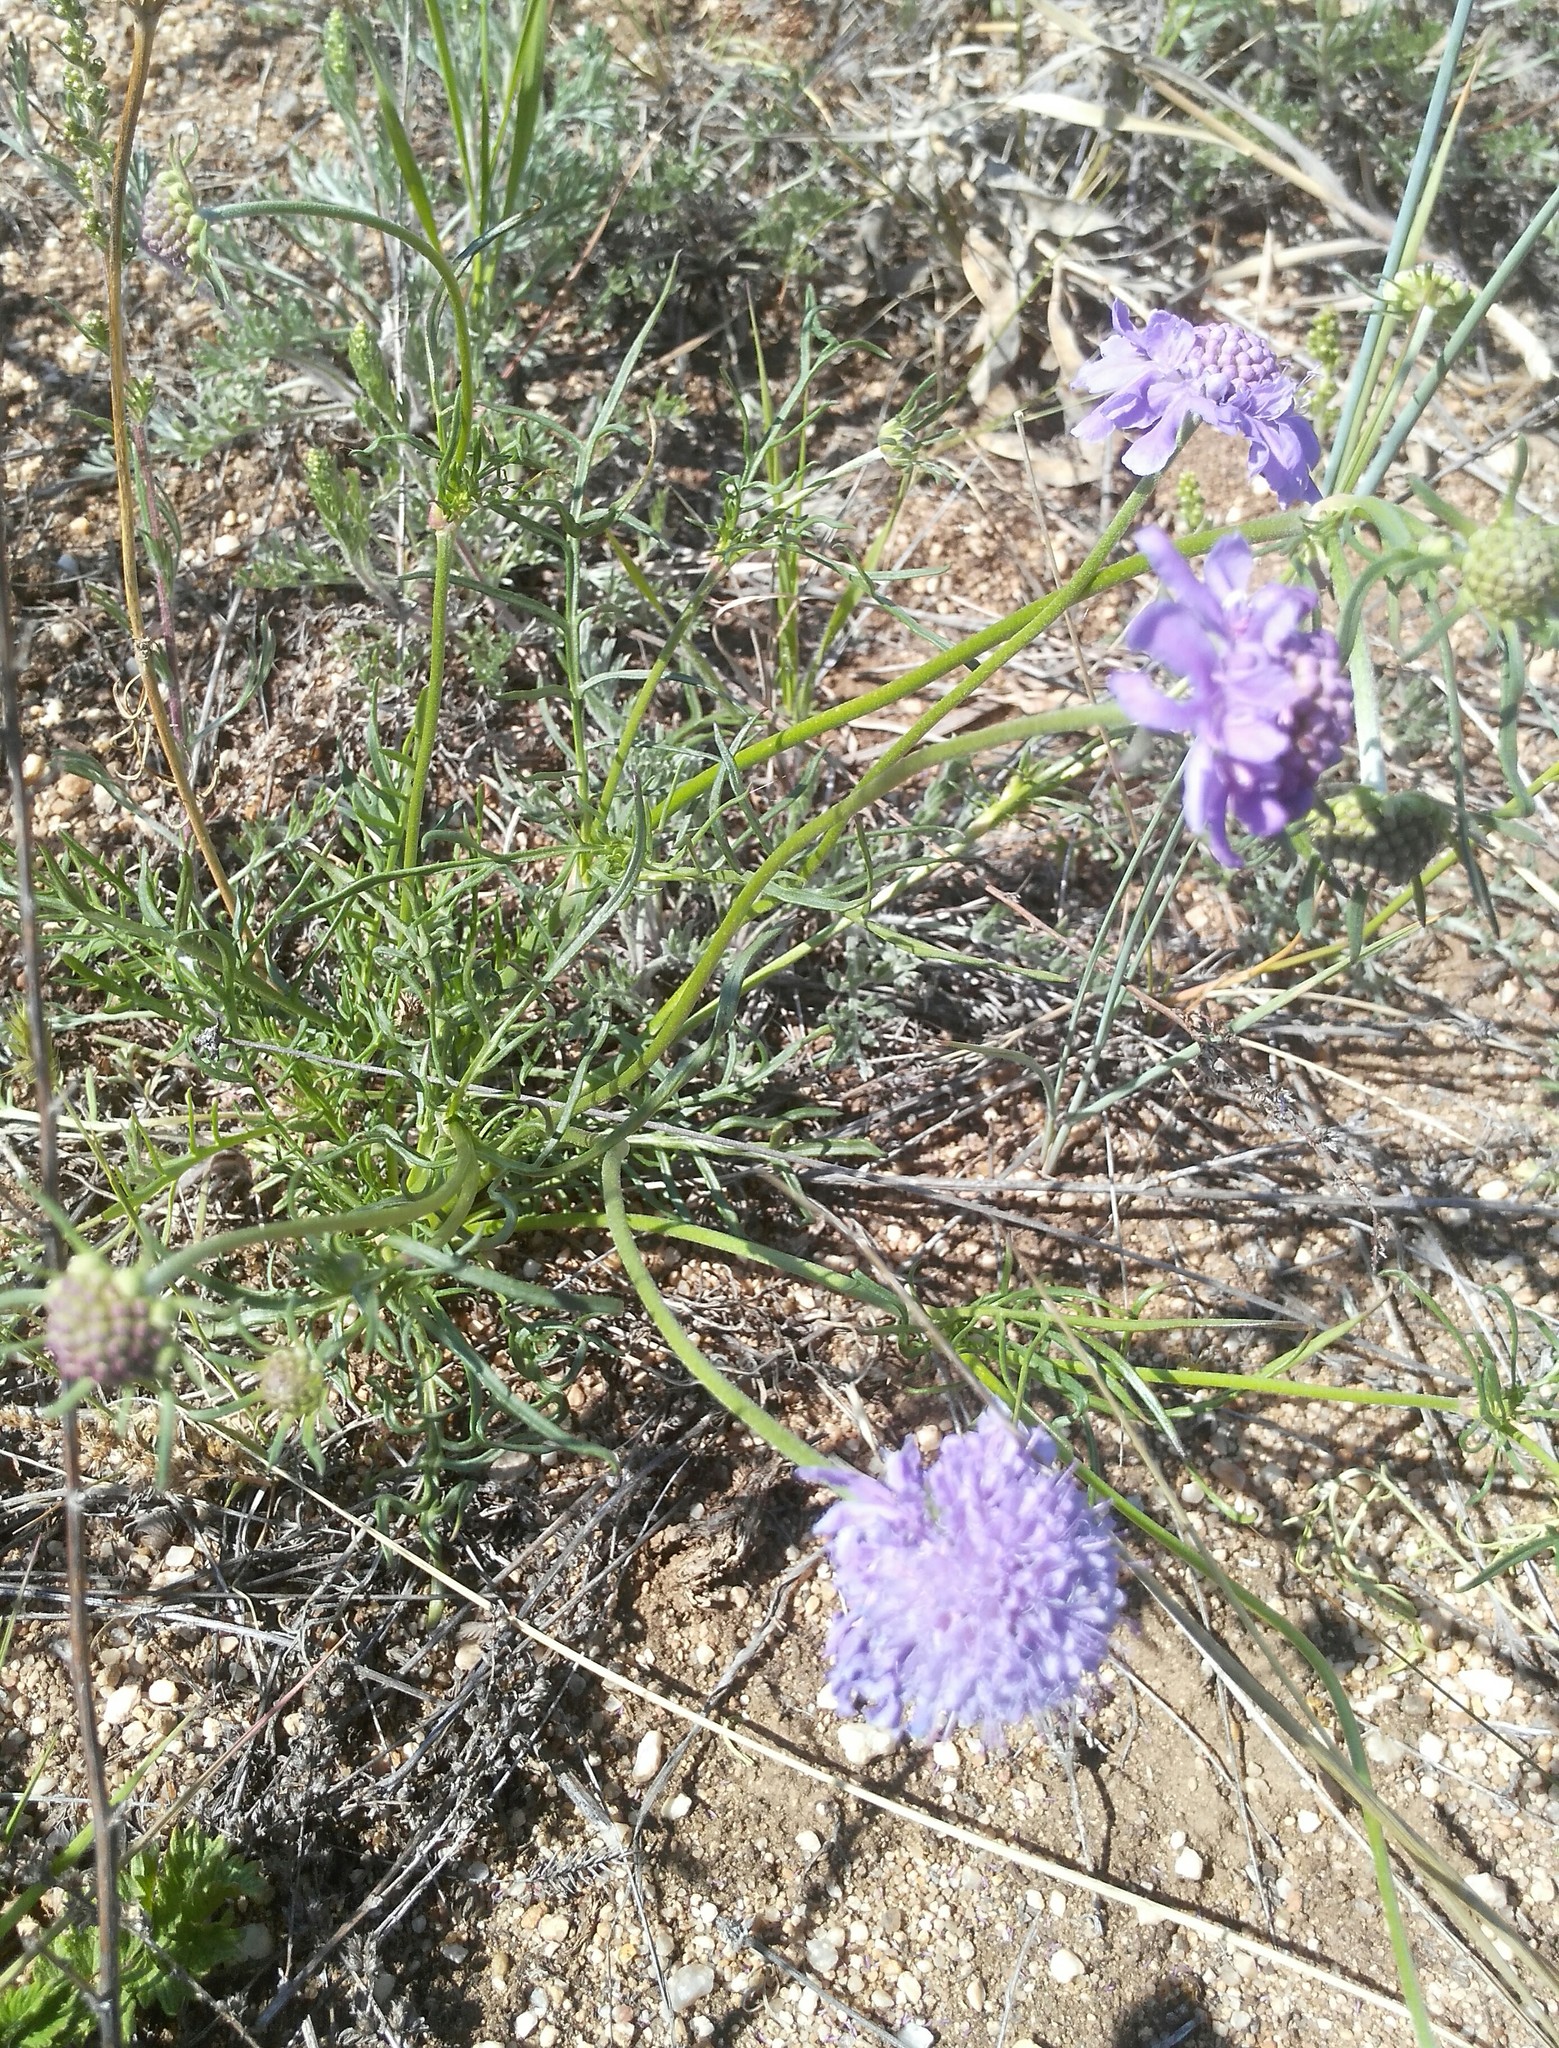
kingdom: Plantae
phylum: Tracheophyta
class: Magnoliopsida
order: Dipsacales
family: Caprifoliaceae
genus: Scabiosa
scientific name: Scabiosa comosa
